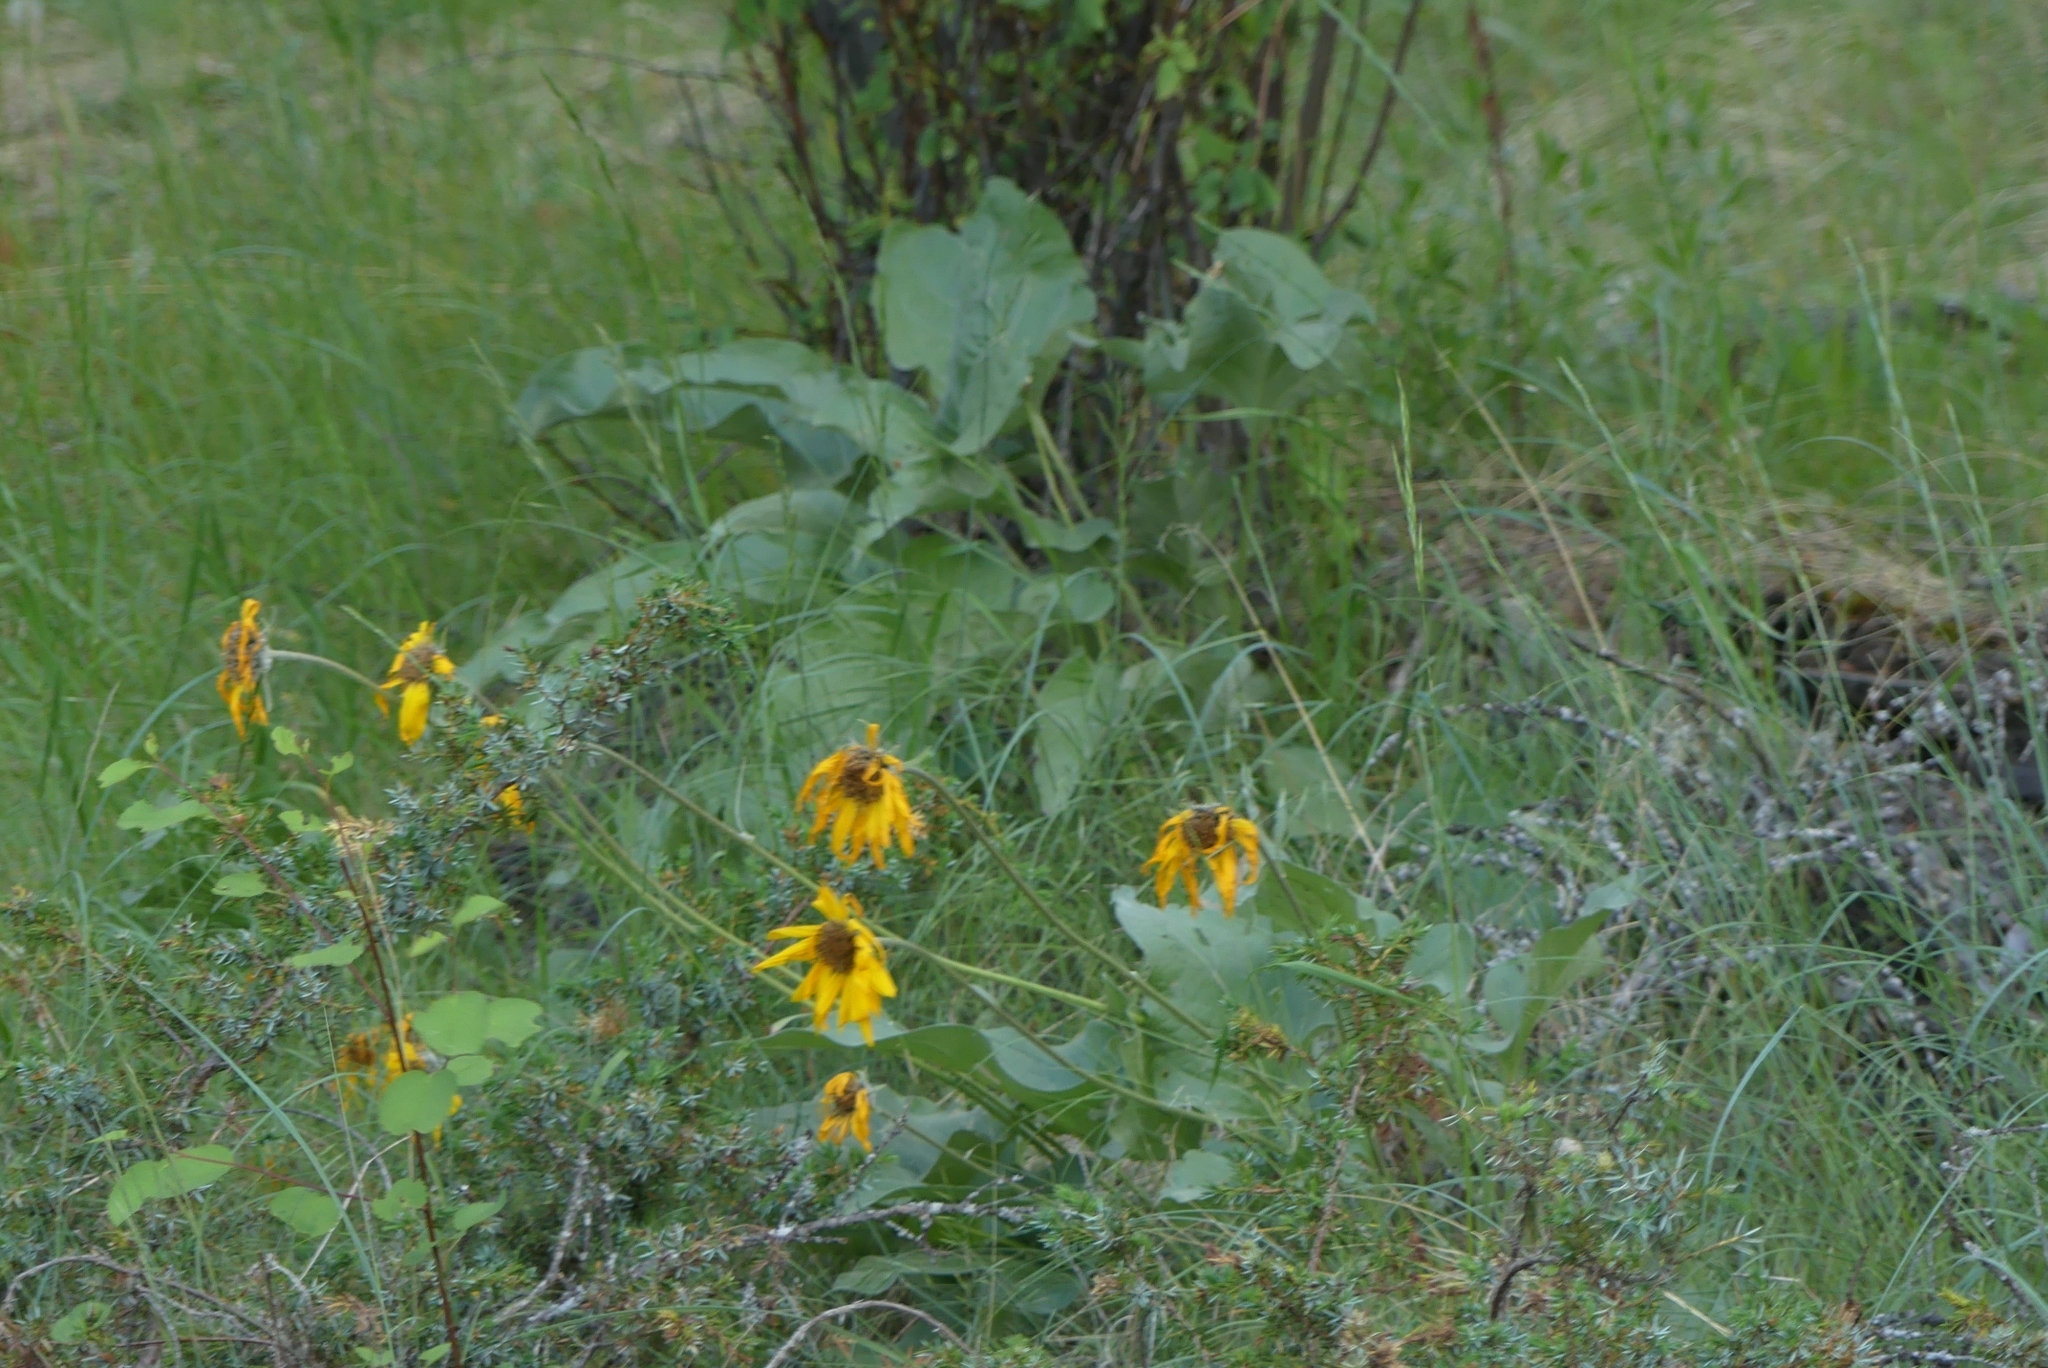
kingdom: Plantae
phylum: Tracheophyta
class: Magnoliopsida
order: Asterales
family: Asteraceae
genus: Wyethia
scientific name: Wyethia sagittata
